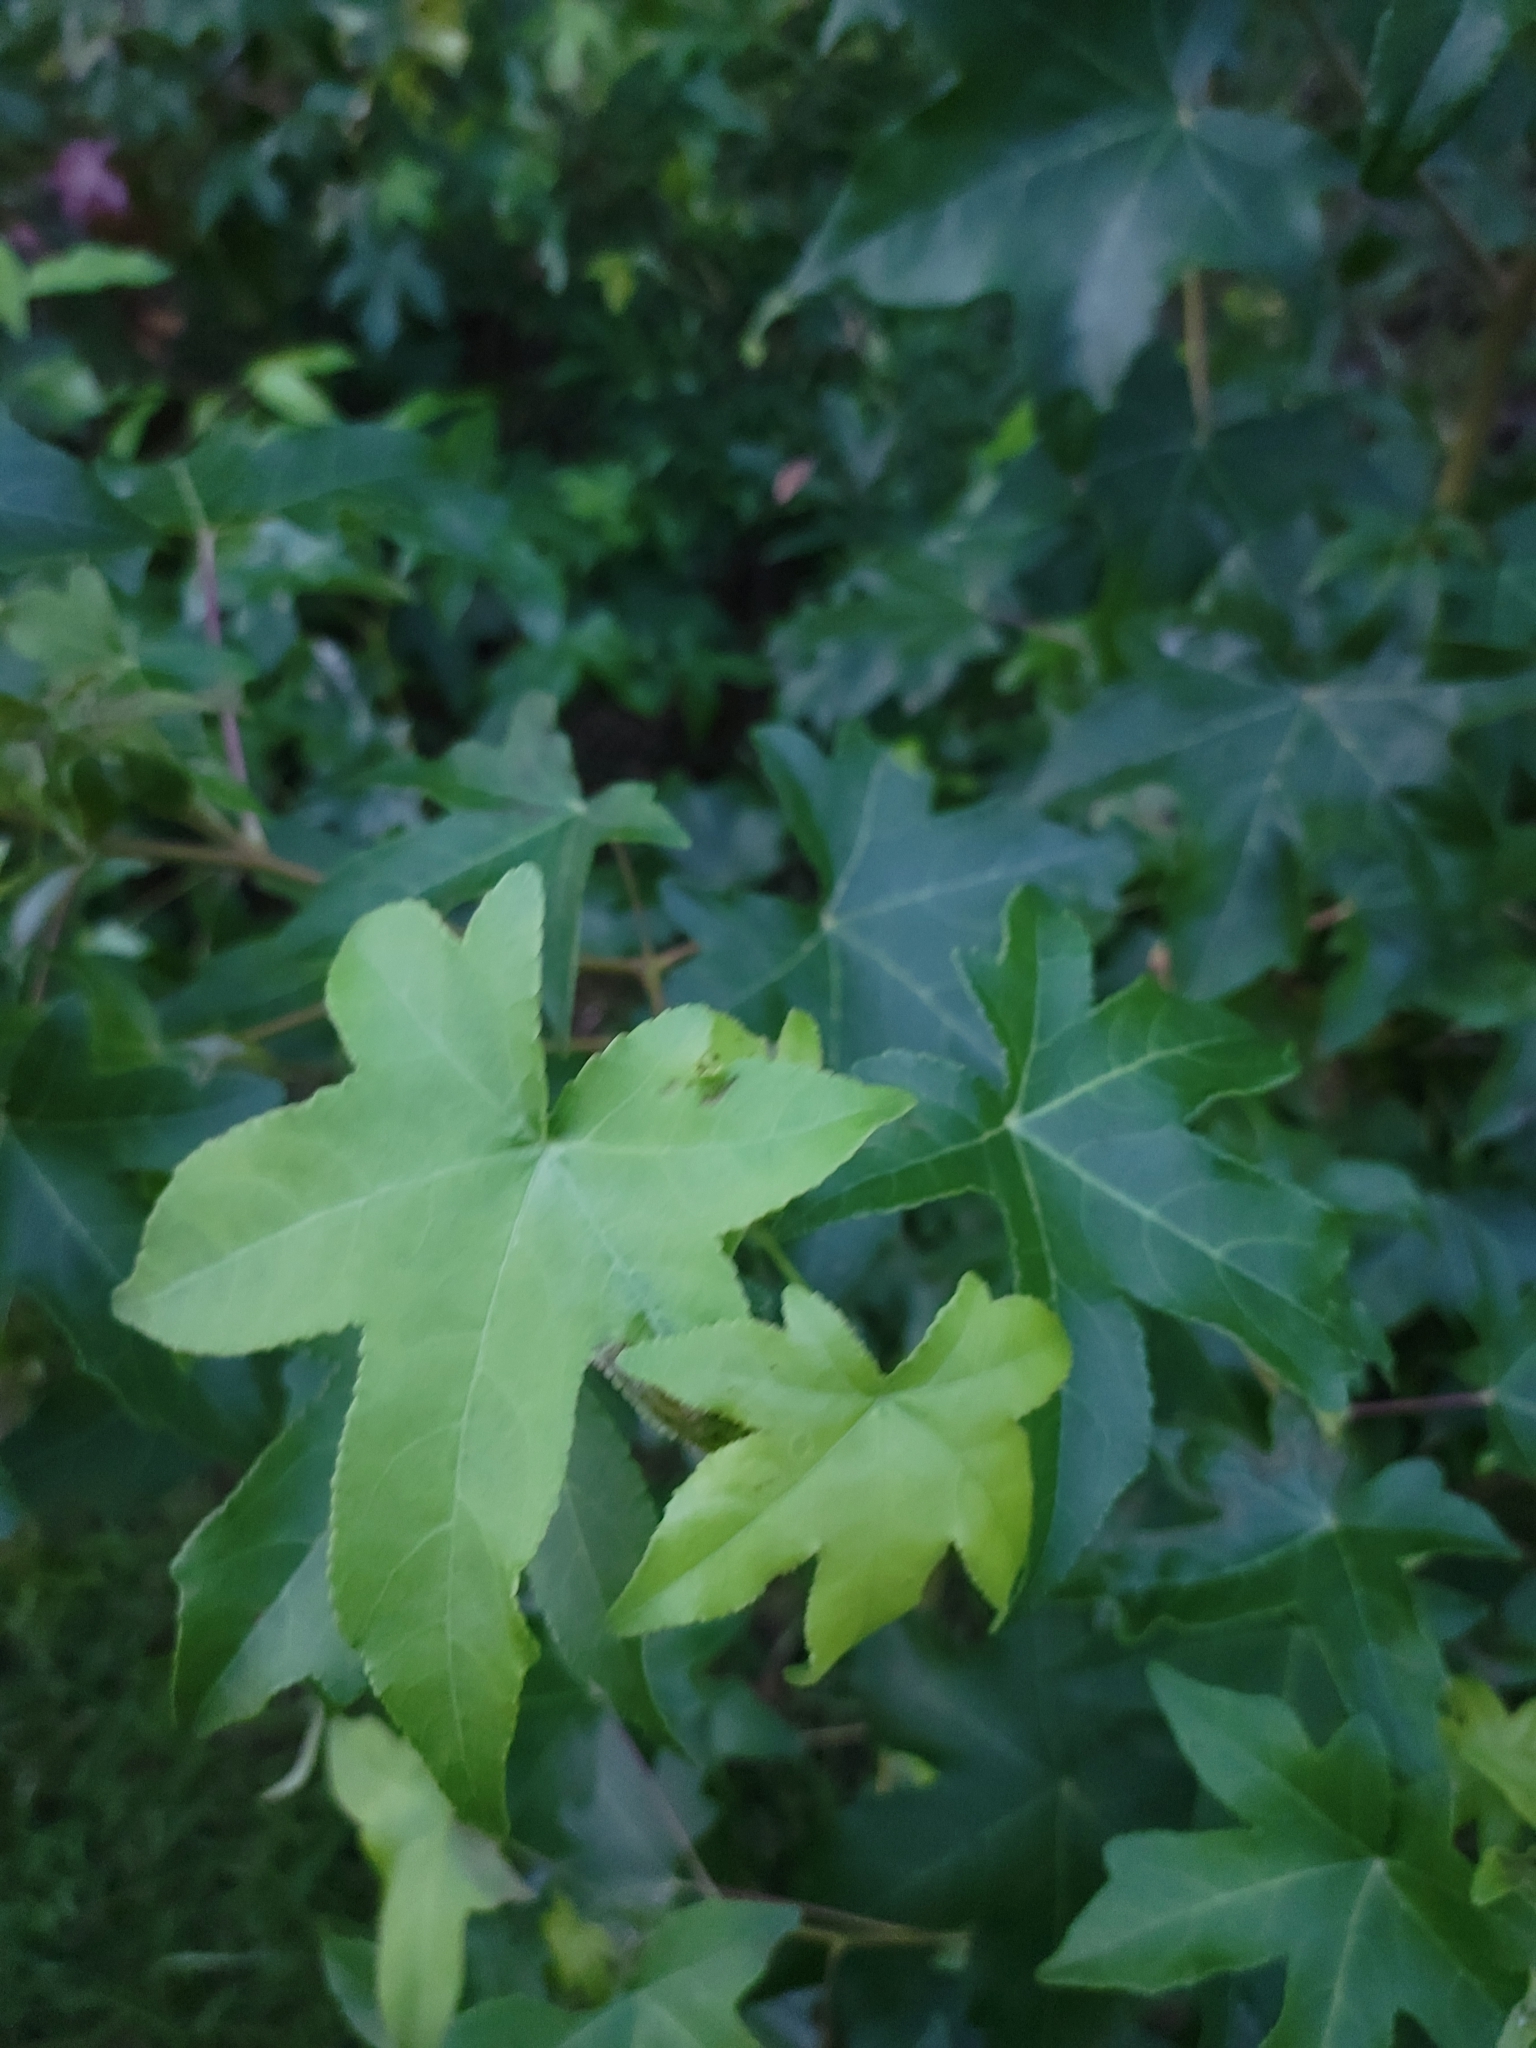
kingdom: Plantae
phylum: Tracheophyta
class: Magnoliopsida
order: Saxifragales
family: Altingiaceae
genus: Liquidambar
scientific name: Liquidambar styraciflua
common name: Sweet gum
